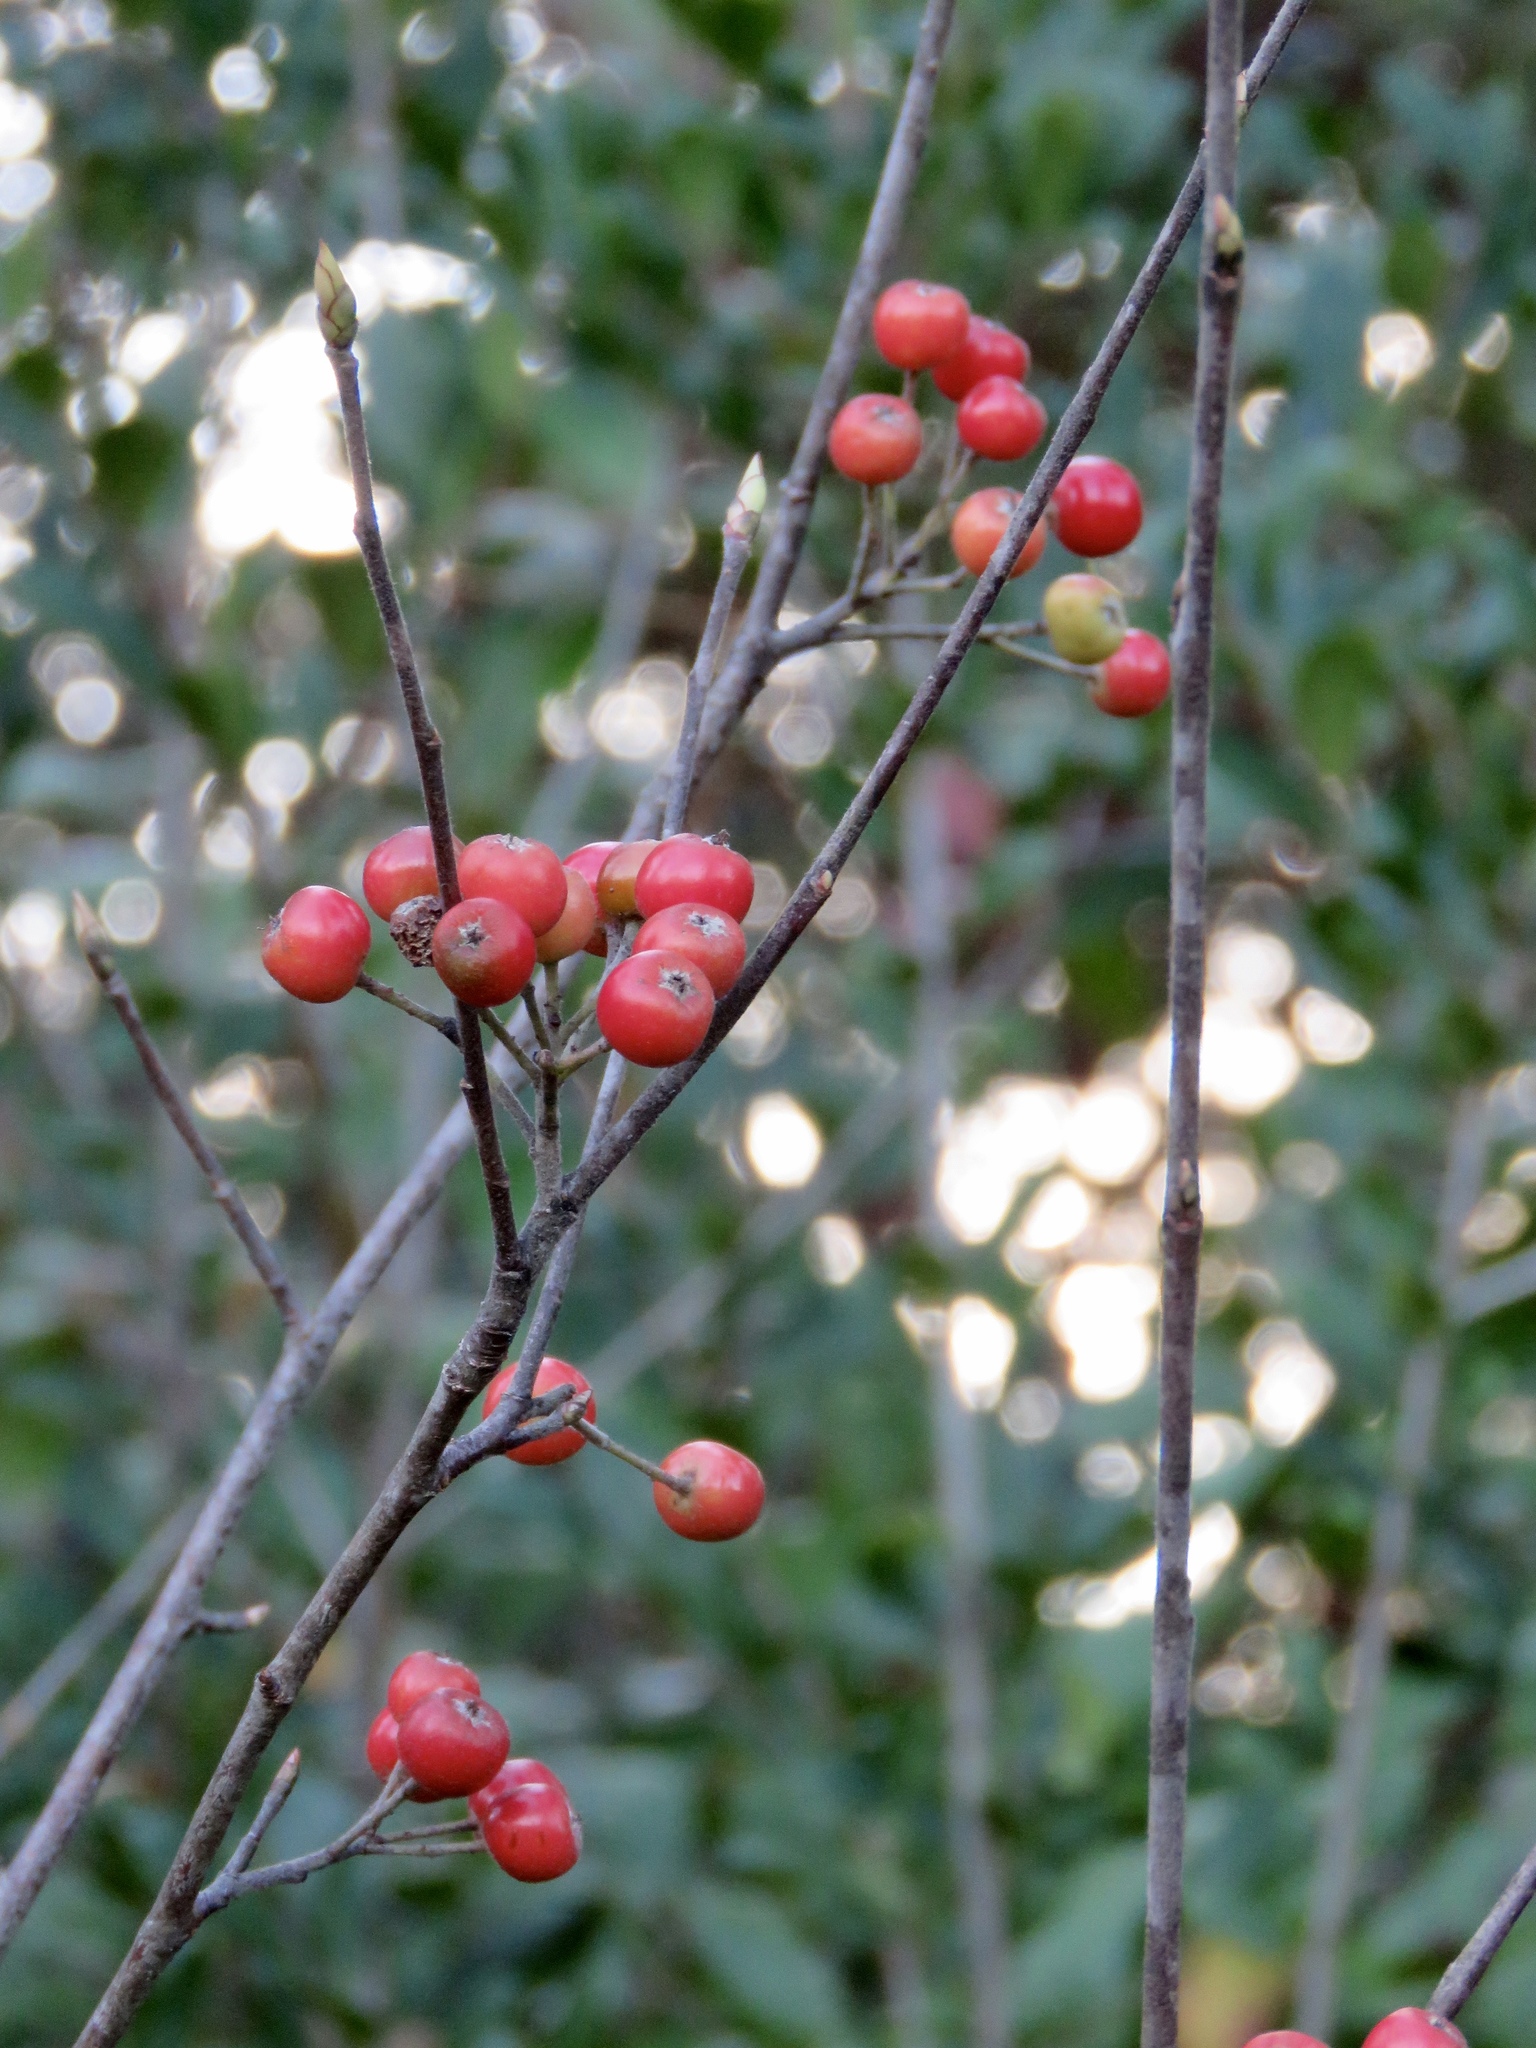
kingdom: Plantae
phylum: Tracheophyta
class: Magnoliopsida
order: Rosales
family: Rosaceae
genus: Aronia
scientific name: Aronia arbutifolia
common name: Red chokeberry
